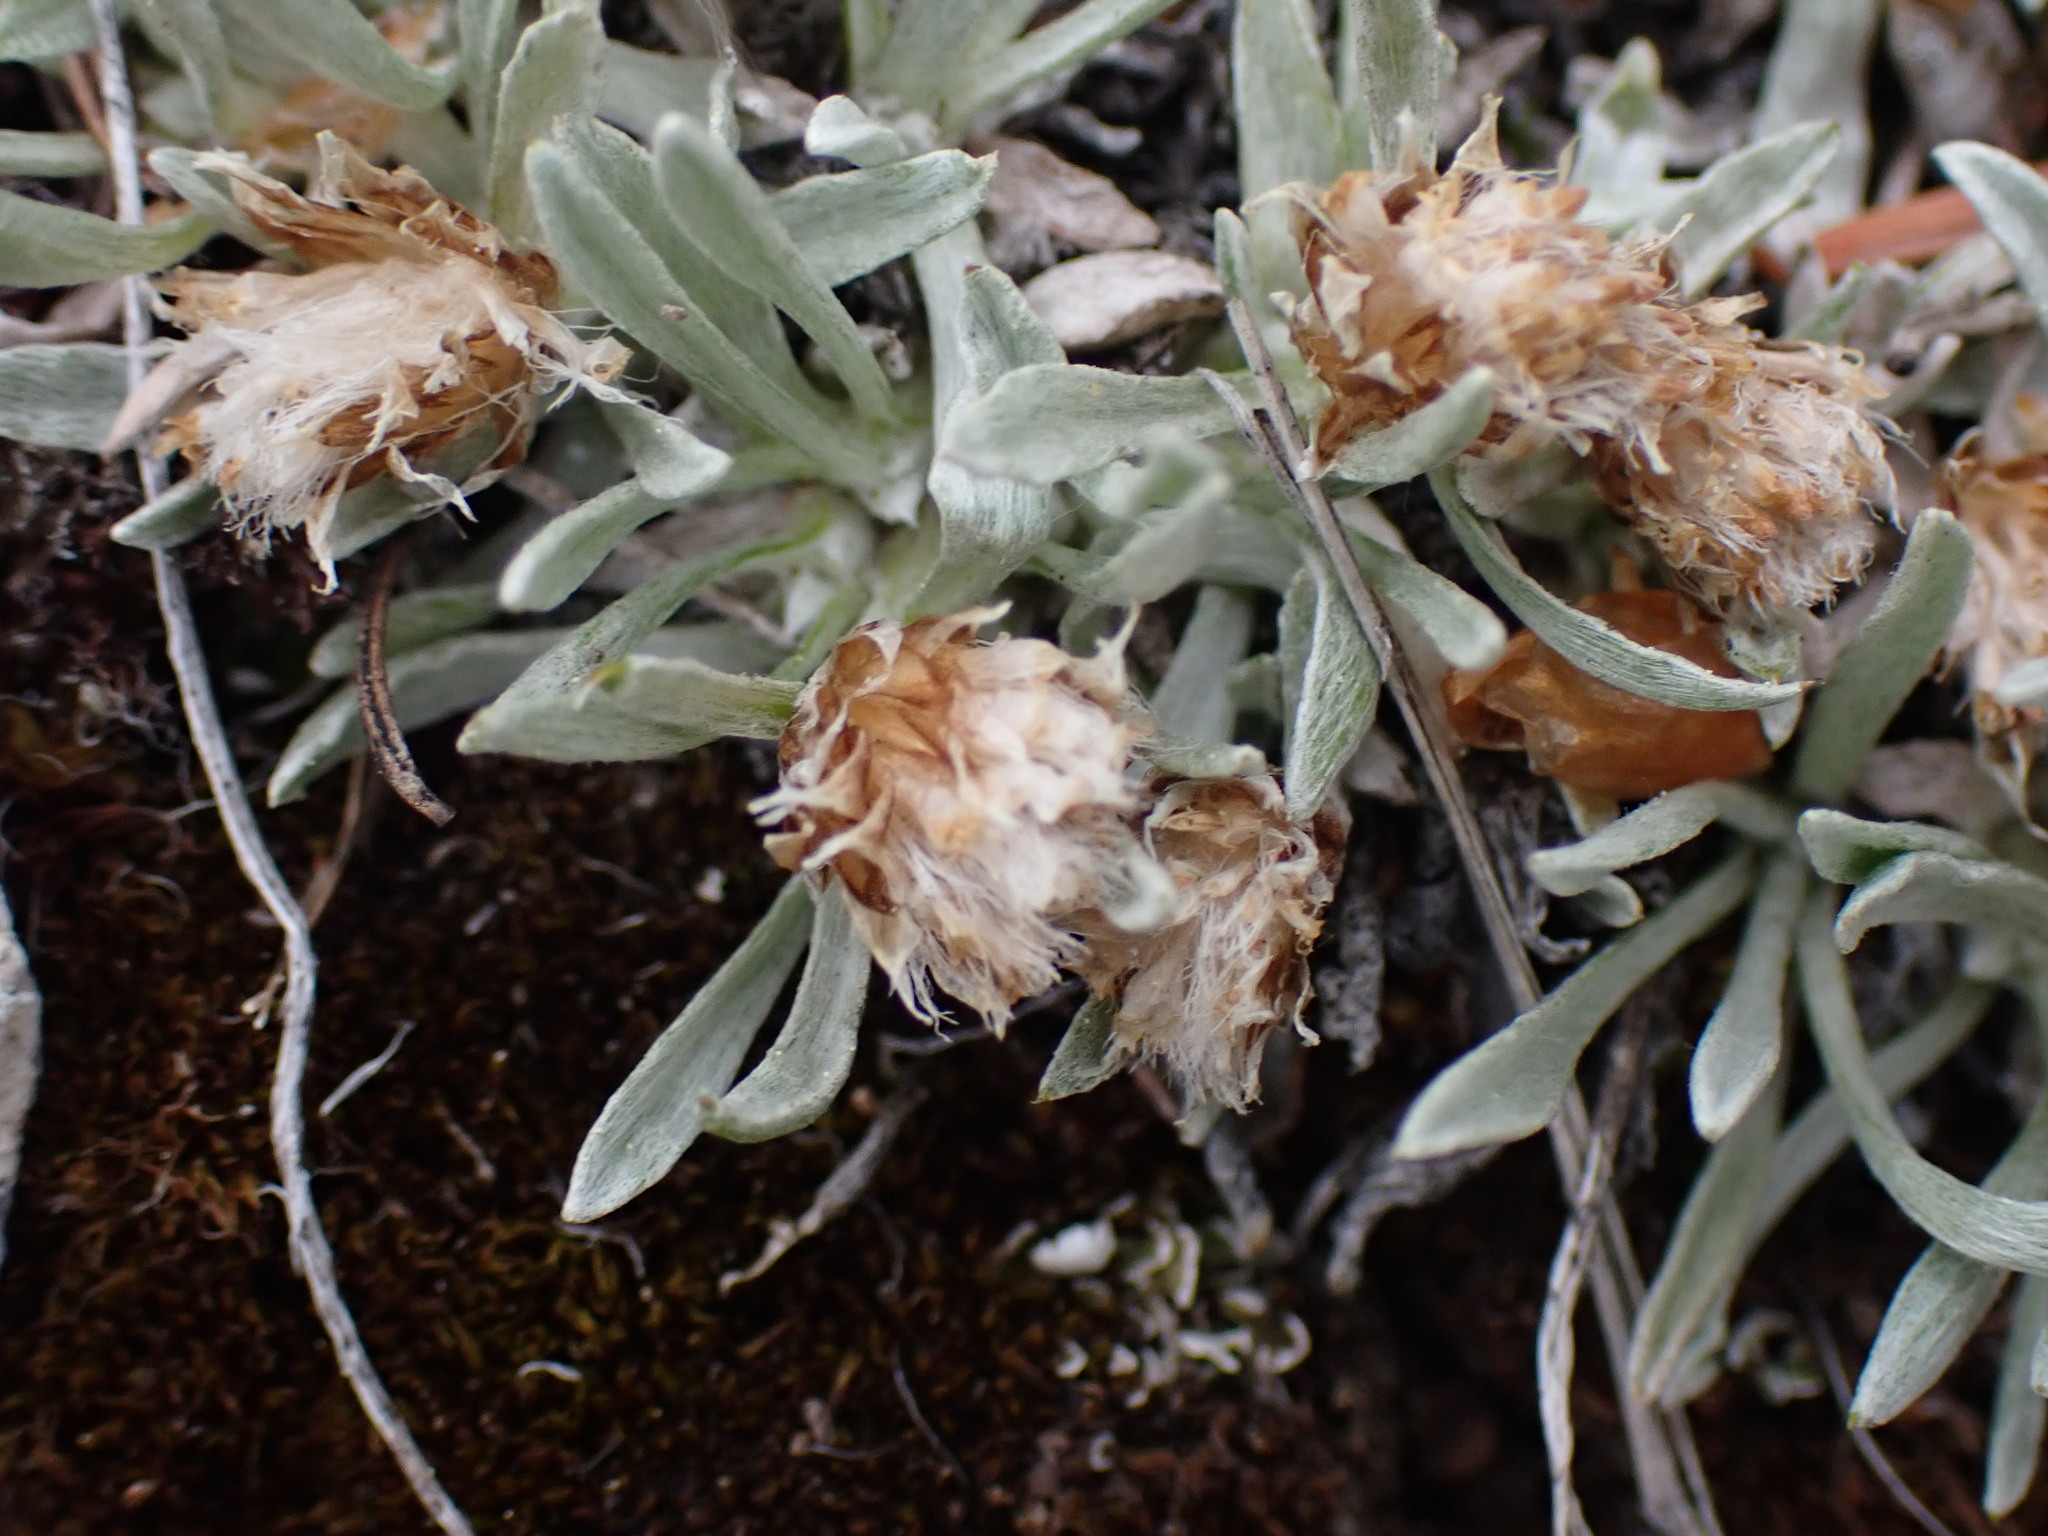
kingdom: Plantae
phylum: Tracheophyta
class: Magnoliopsida
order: Asterales
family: Asteraceae
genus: Antennaria
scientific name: Antennaria dimorpha
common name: Cushion pussytoes
